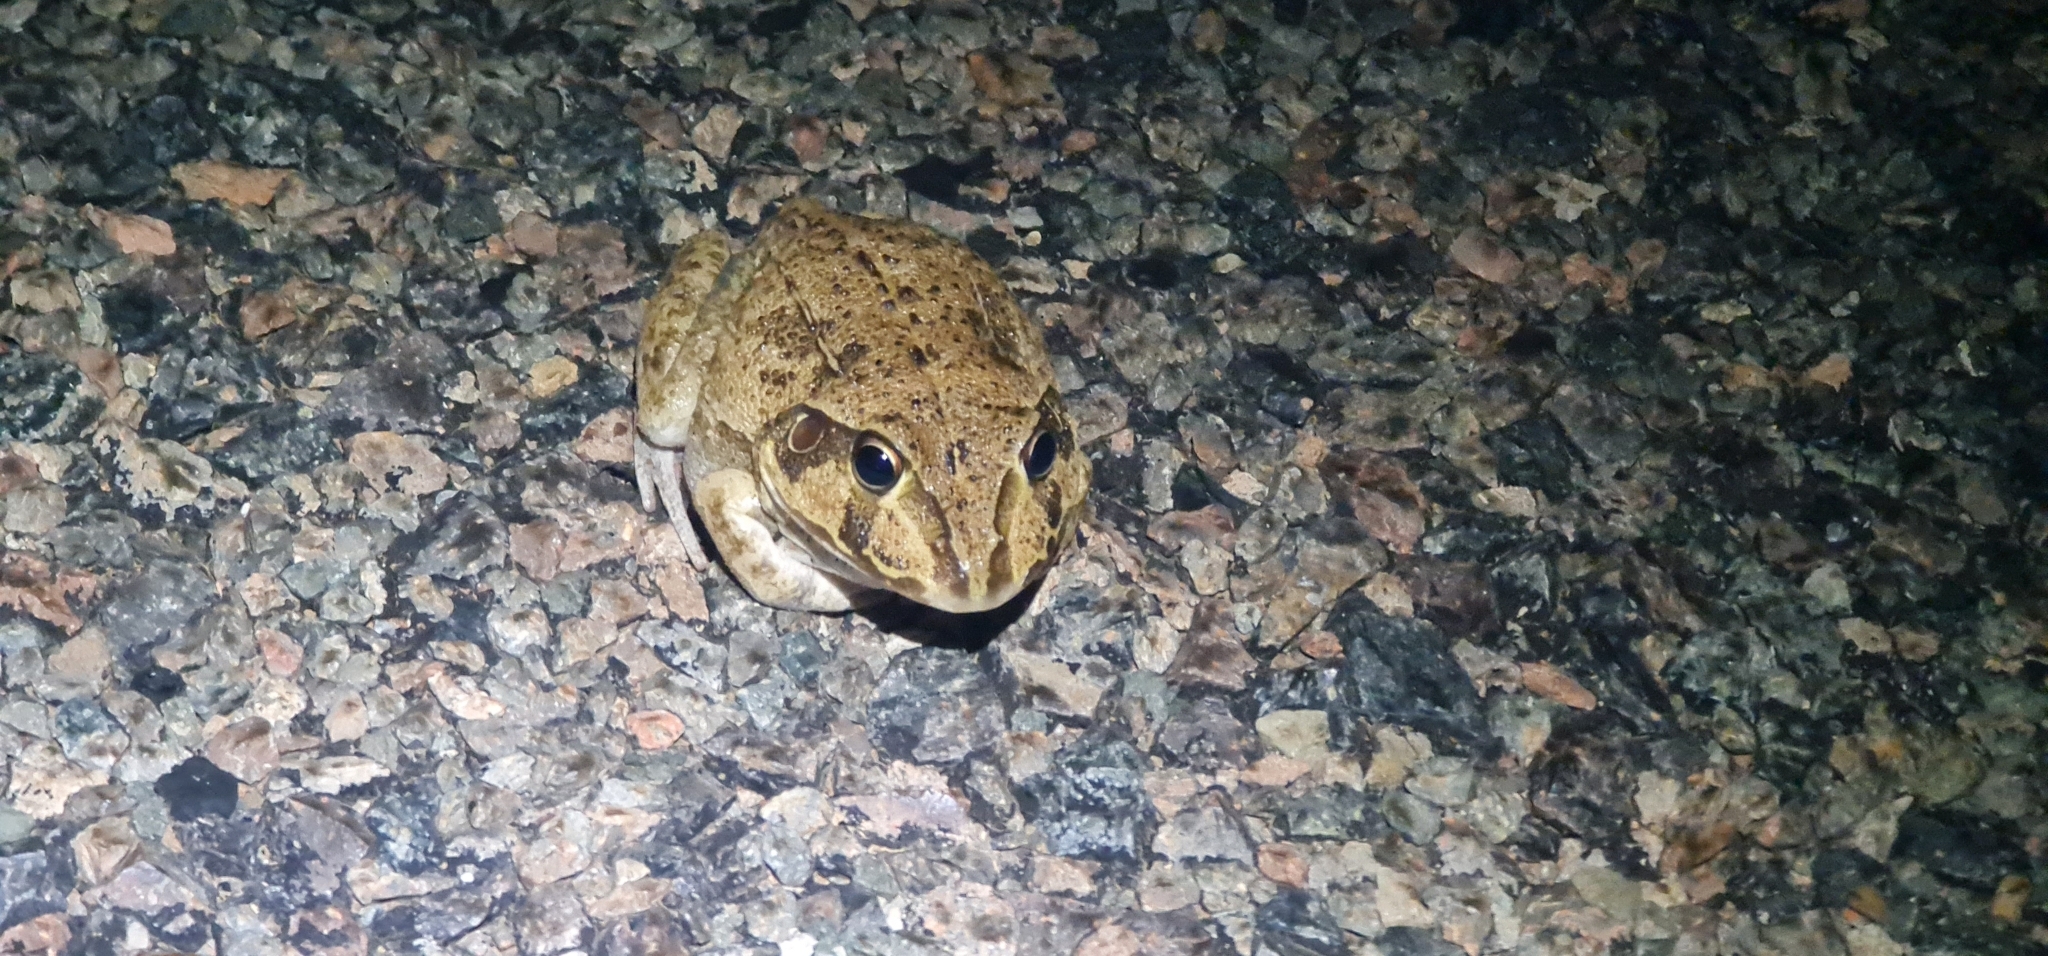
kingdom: Animalia
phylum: Chordata
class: Amphibia
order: Anura
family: Pelodryadidae
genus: Ranoidea
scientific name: Ranoidea novaehollandiae
